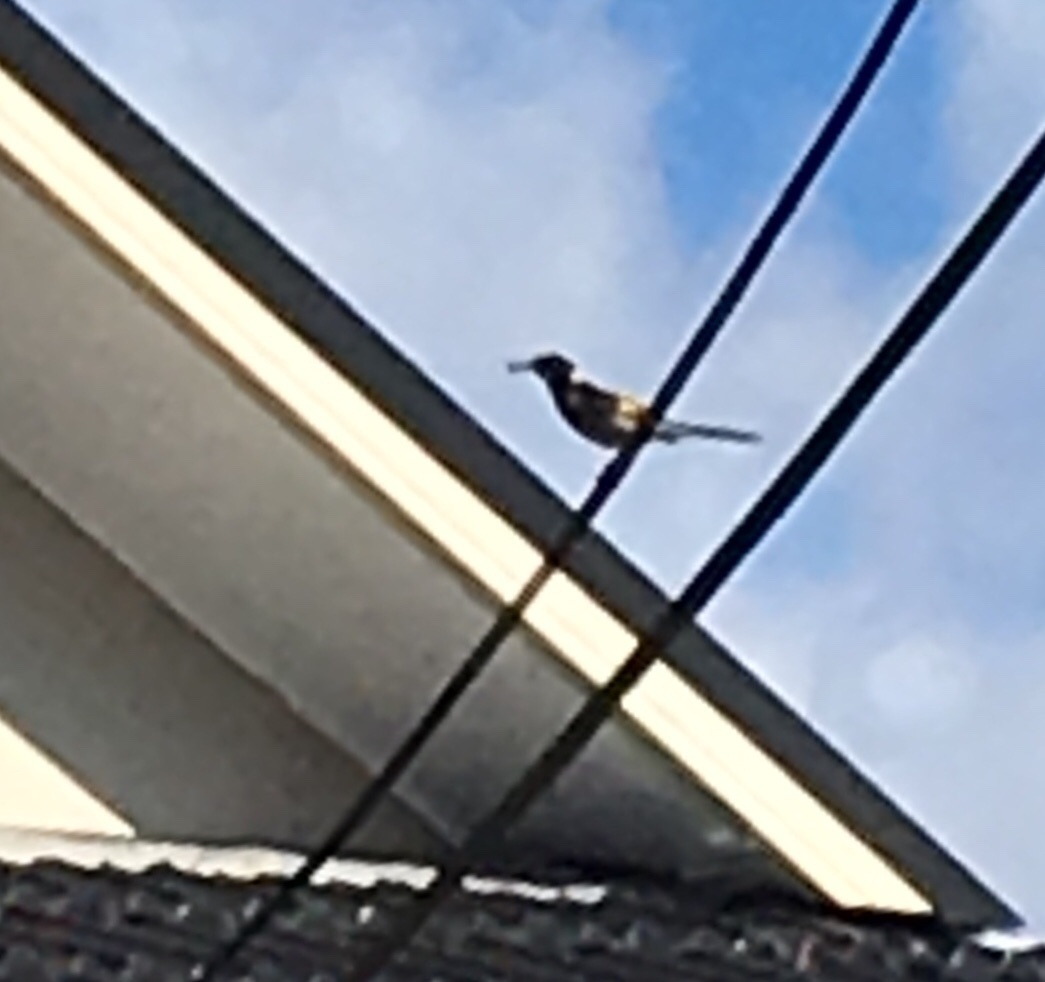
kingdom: Animalia
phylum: Chordata
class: Aves
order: Passeriformes
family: Meliphagidae
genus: Phylidonyris
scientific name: Phylidonyris novaehollandiae
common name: New holland honeyeater
